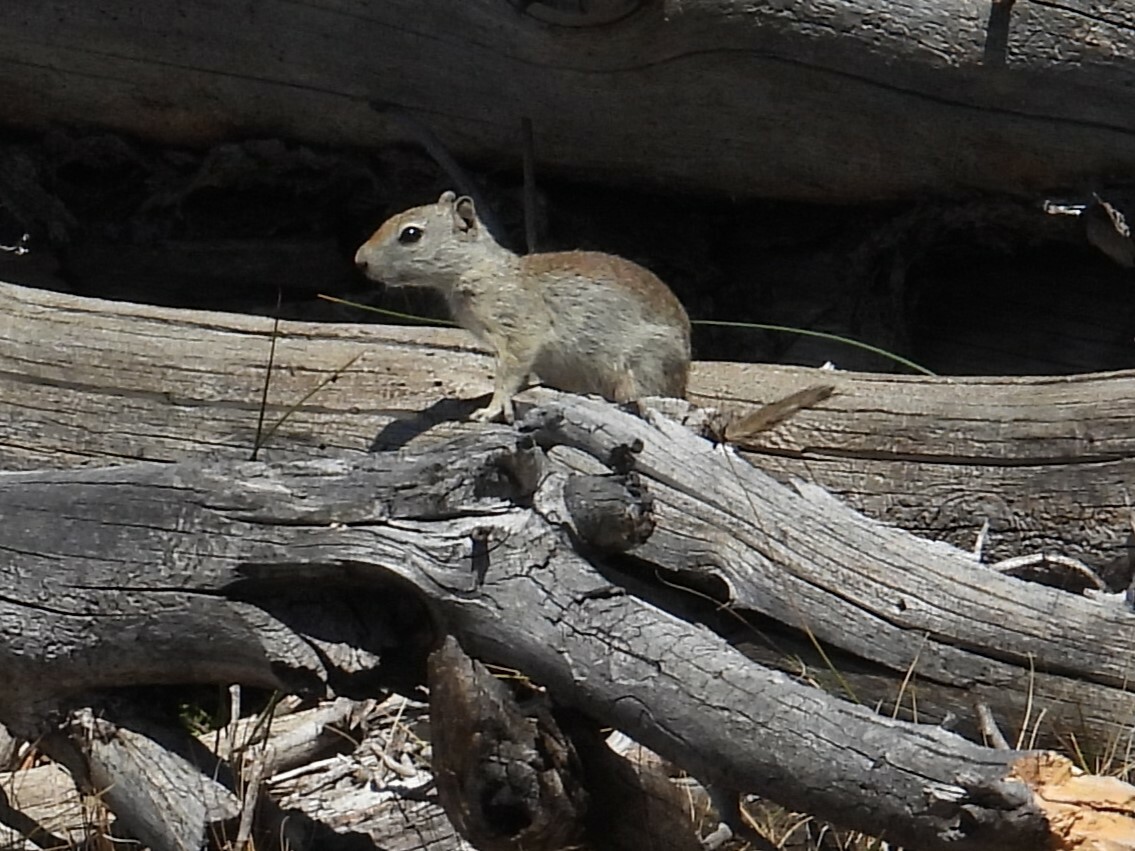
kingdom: Animalia
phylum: Chordata
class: Mammalia
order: Rodentia
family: Sciuridae
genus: Urocitellus
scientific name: Urocitellus beldingi
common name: Belding's ground squirrel
